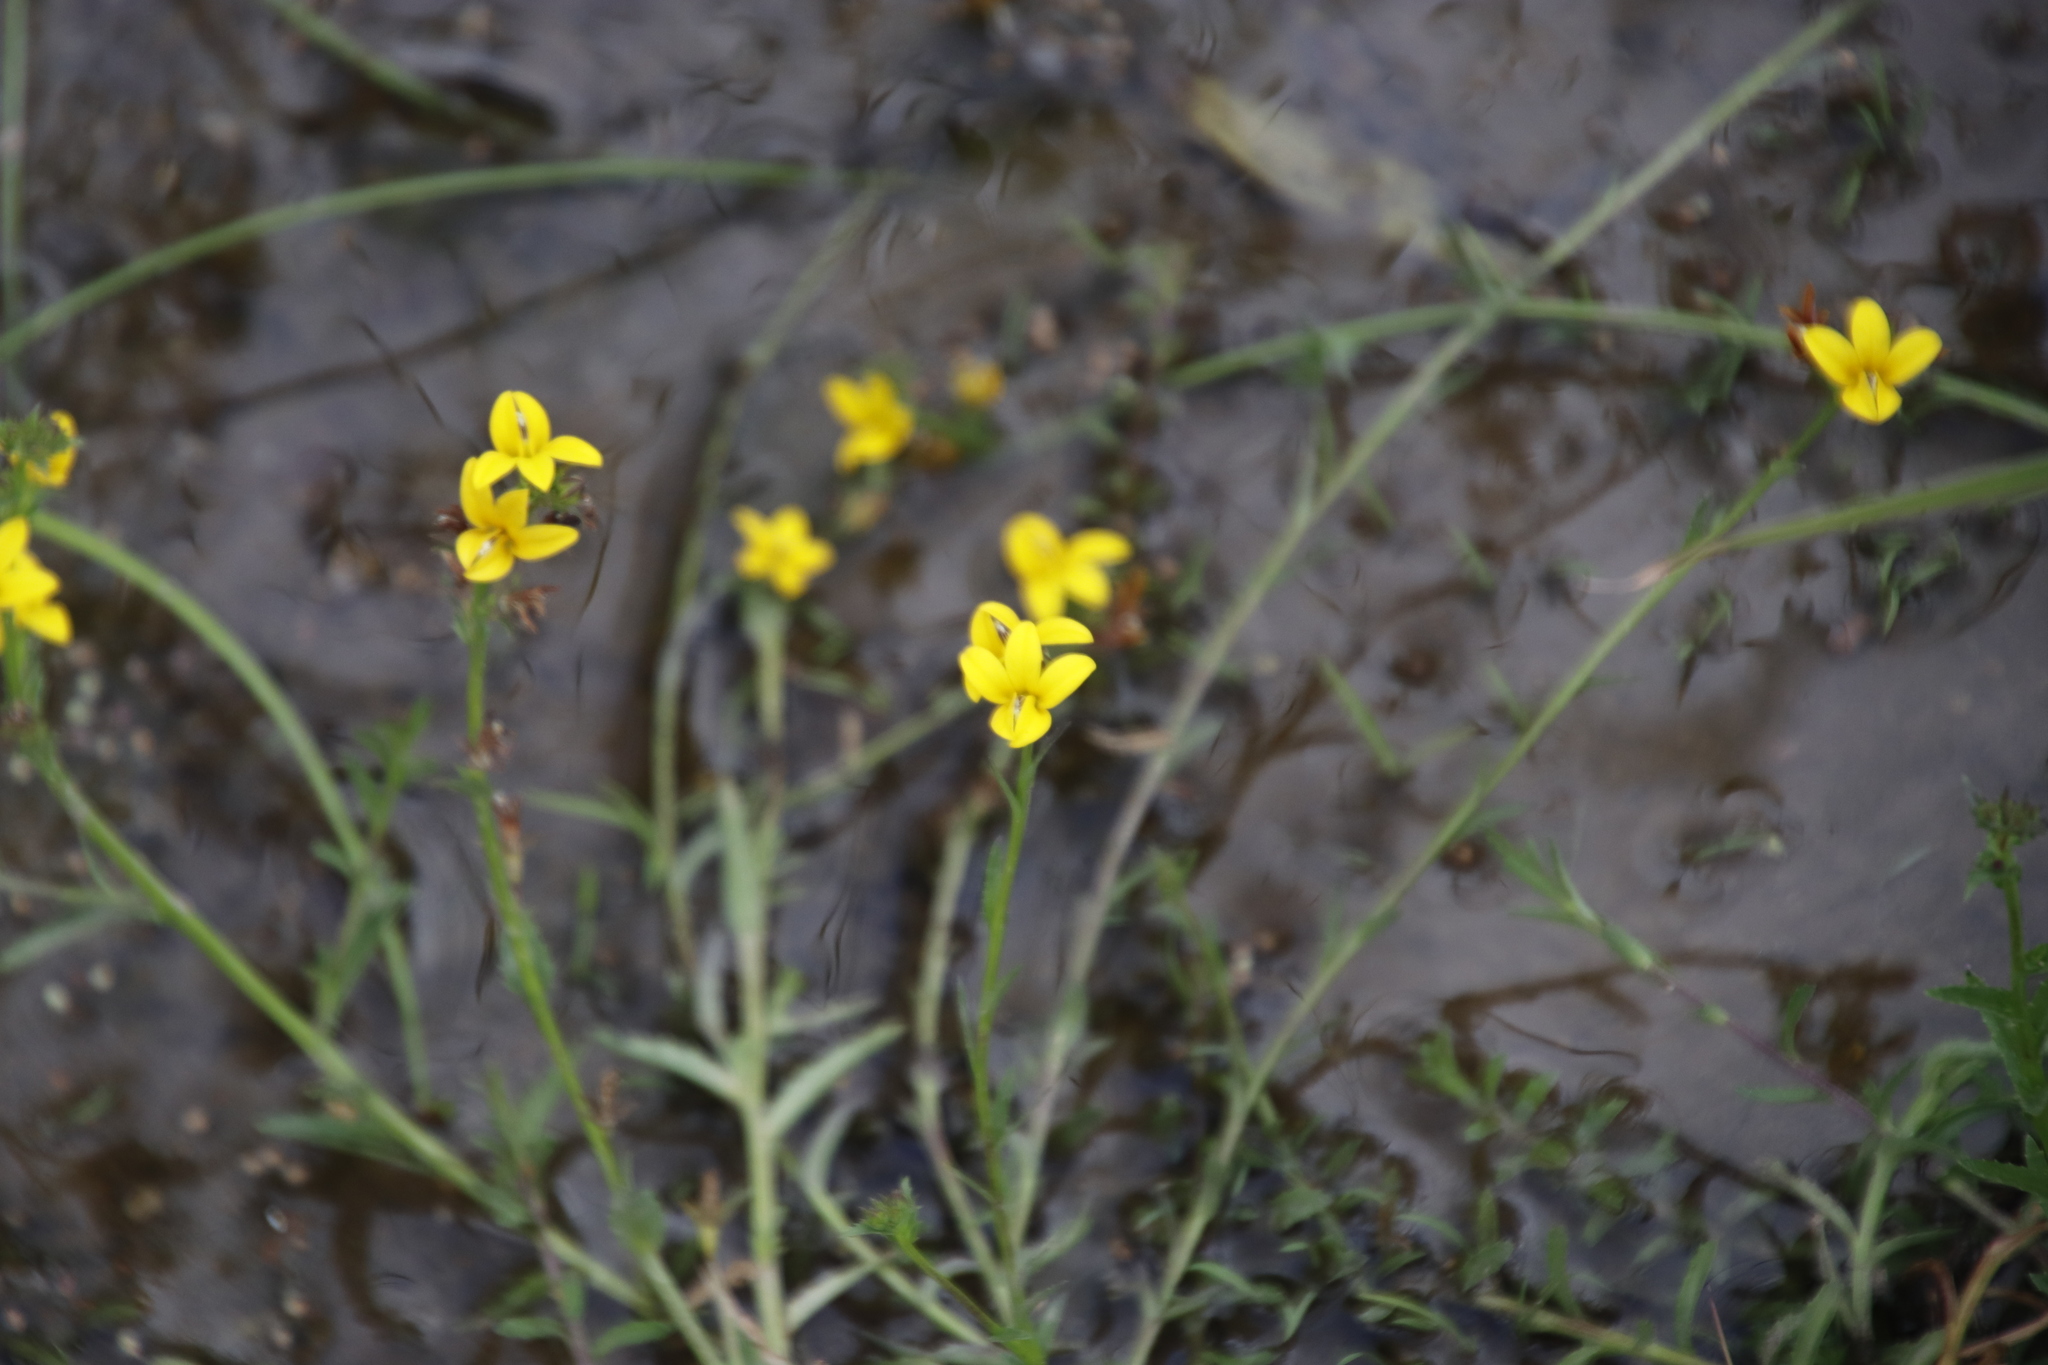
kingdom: Plantae
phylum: Tracheophyta
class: Magnoliopsida
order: Asterales
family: Campanulaceae
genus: Monopsis
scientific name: Monopsis lutea
